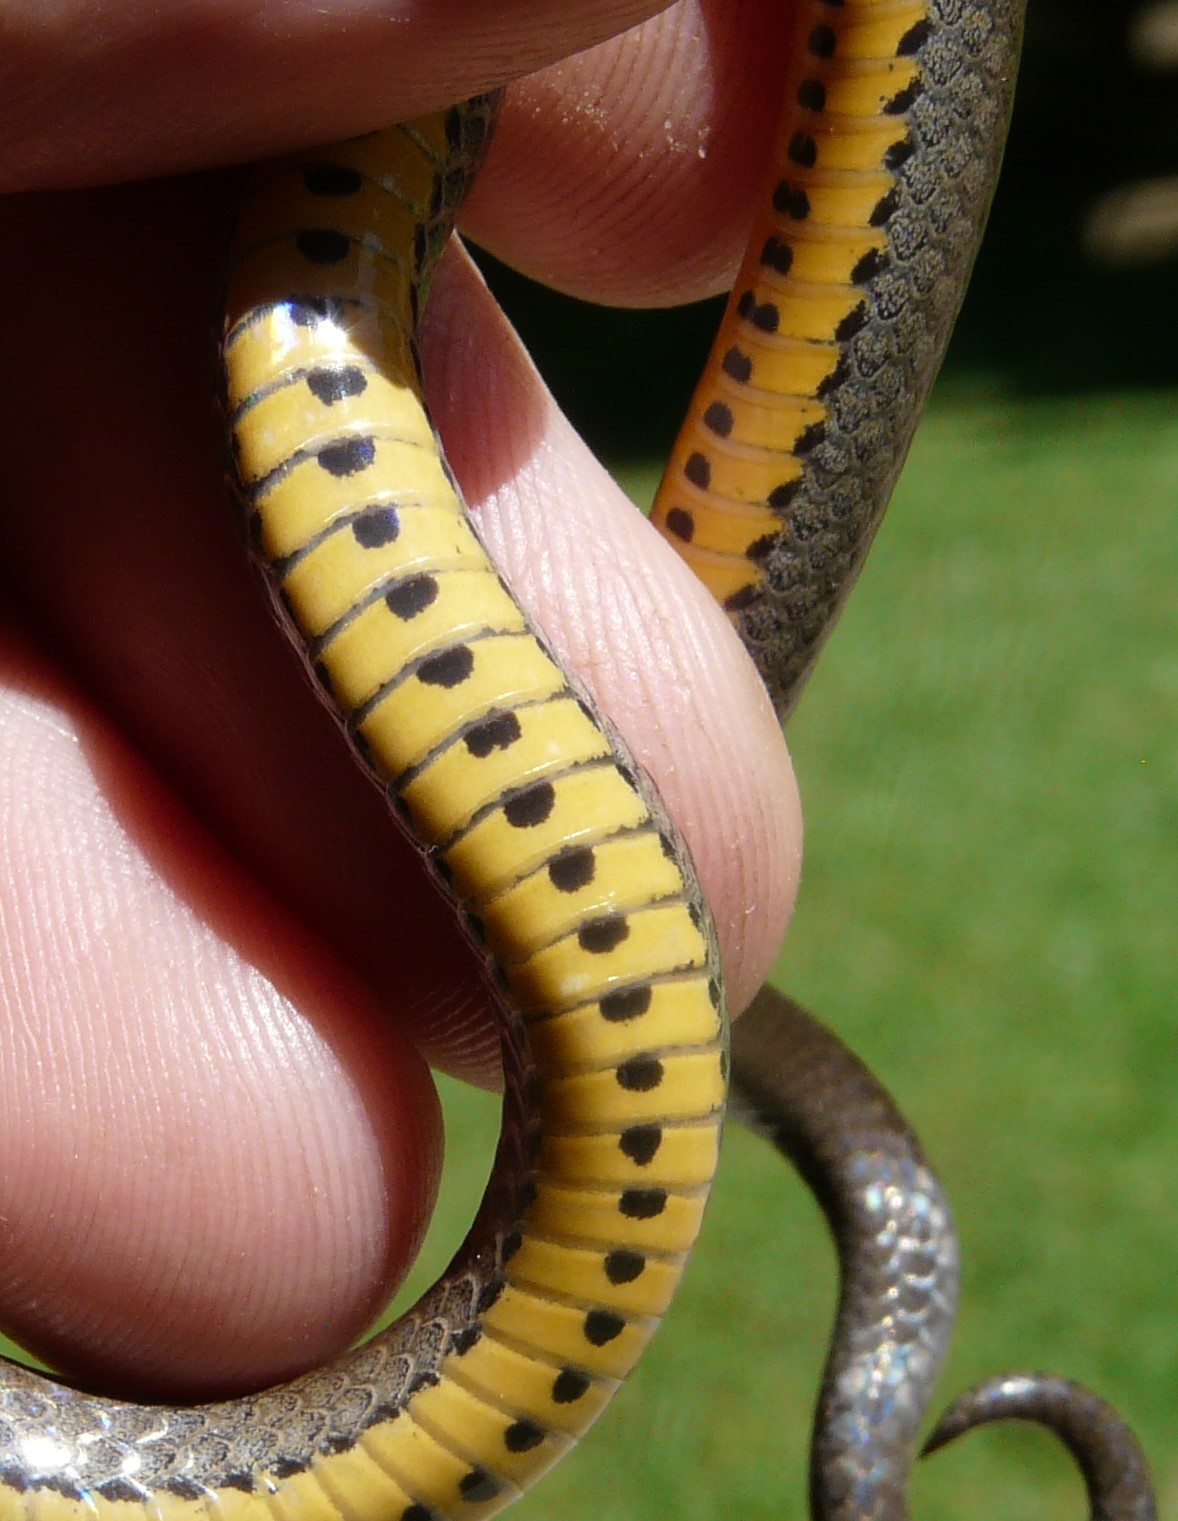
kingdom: Animalia
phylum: Chordata
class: Squamata
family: Colubridae
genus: Diadophis
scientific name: Diadophis punctatus
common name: Ringneck snake
